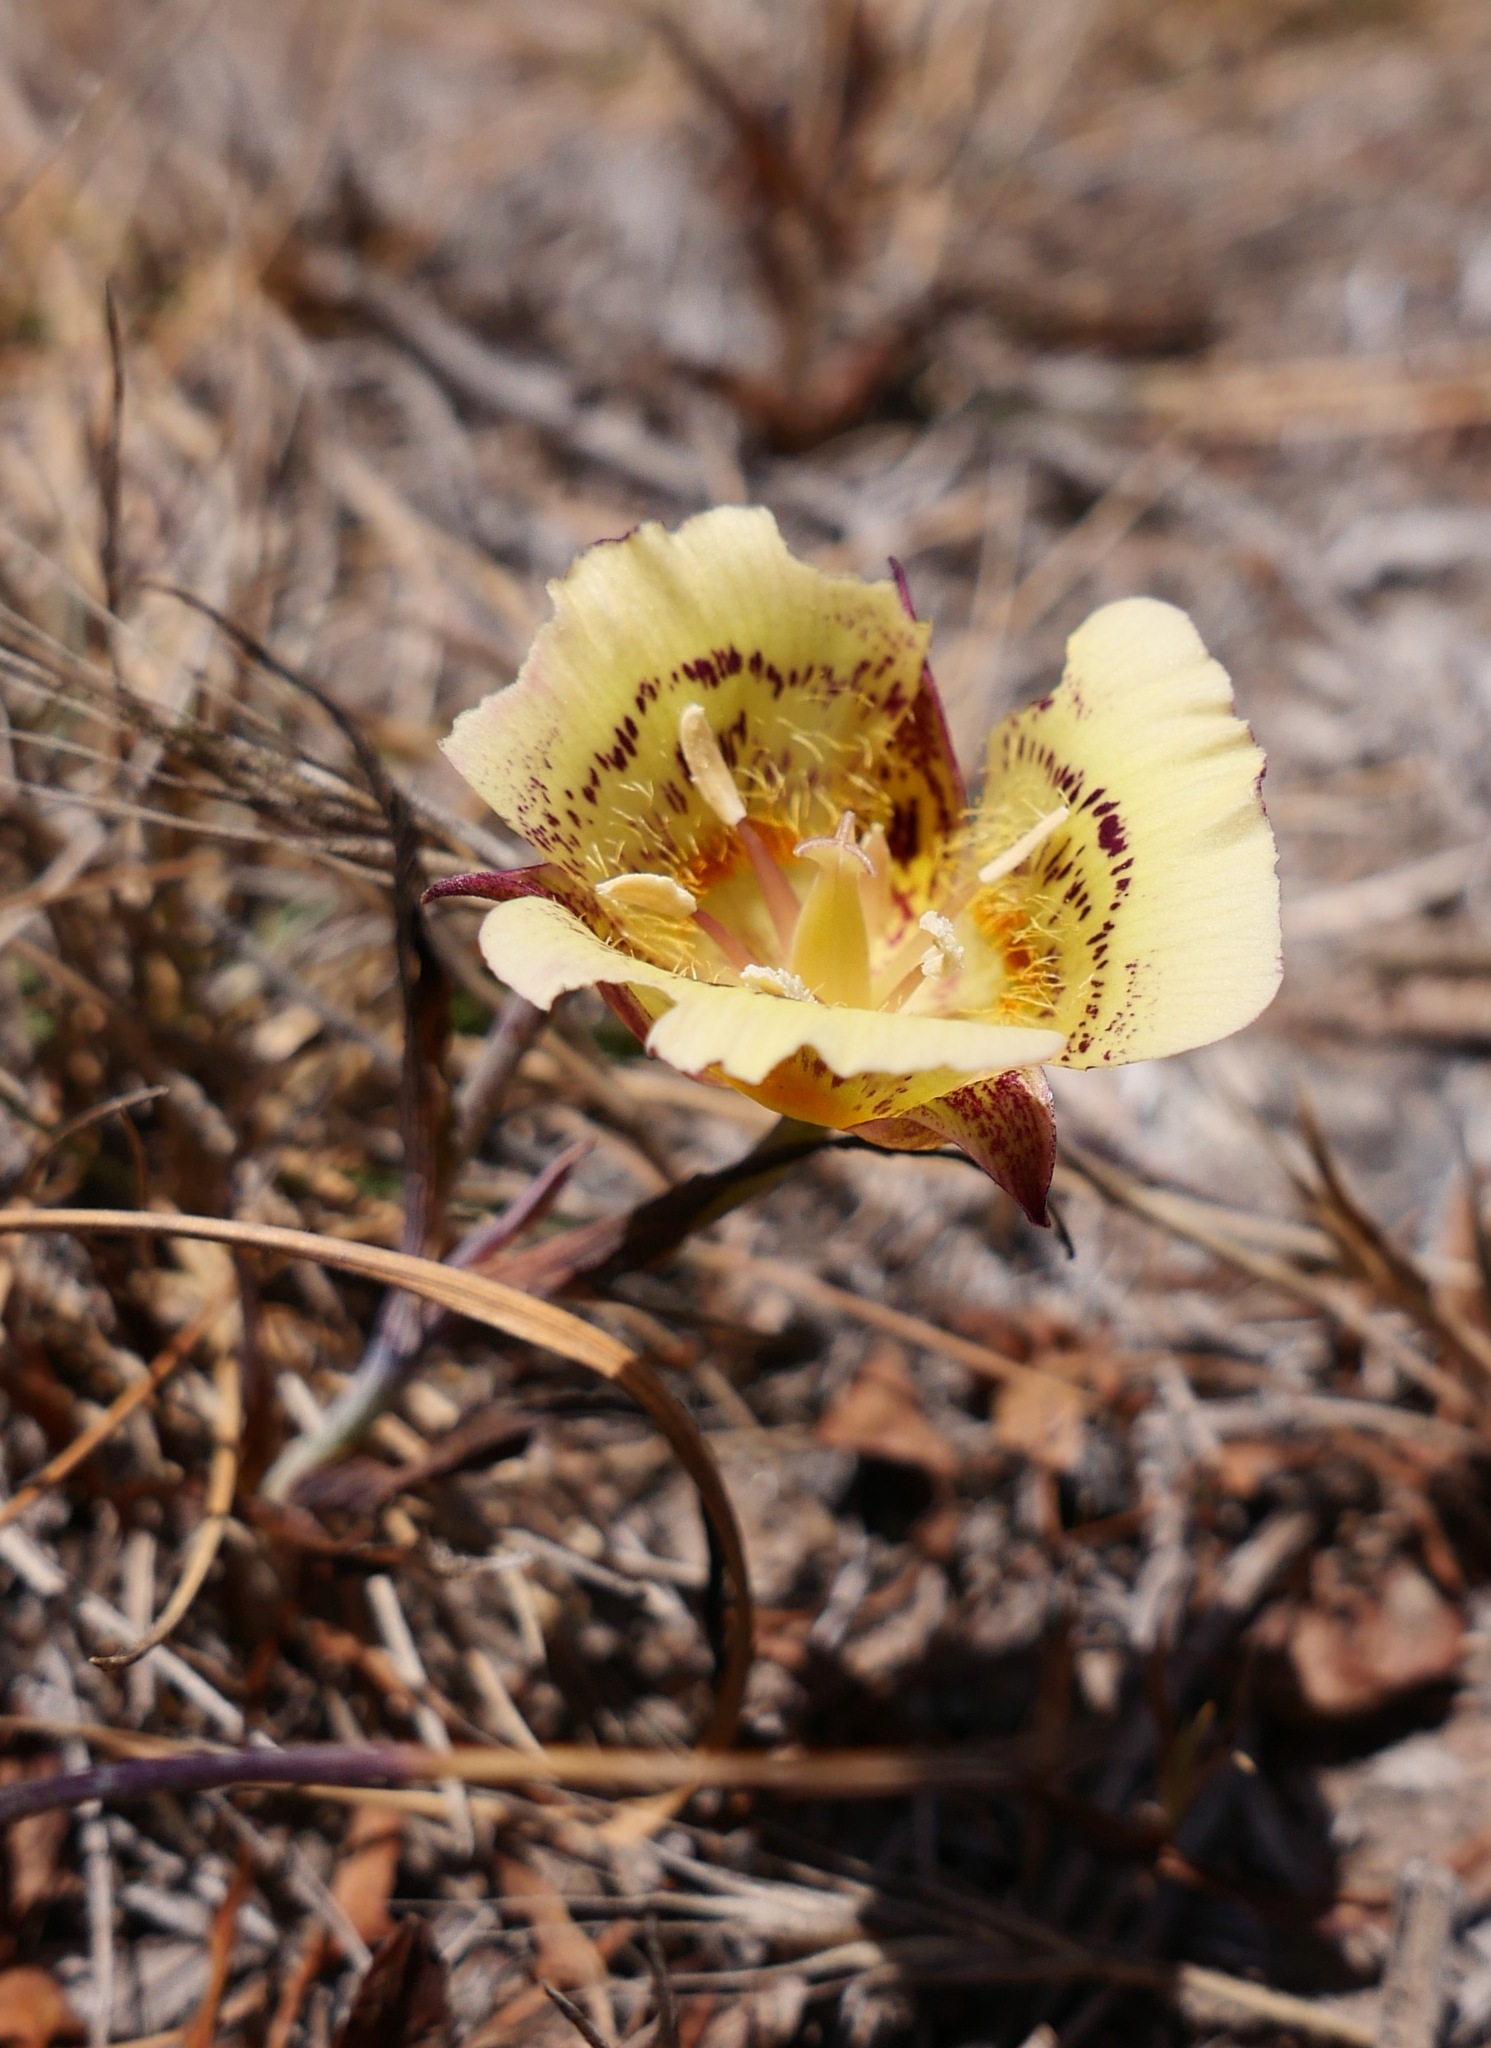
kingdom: Plantae
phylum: Tracheophyta
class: Liliopsida
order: Liliales
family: Liliaceae
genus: Calochortus
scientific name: Calochortus luteus
